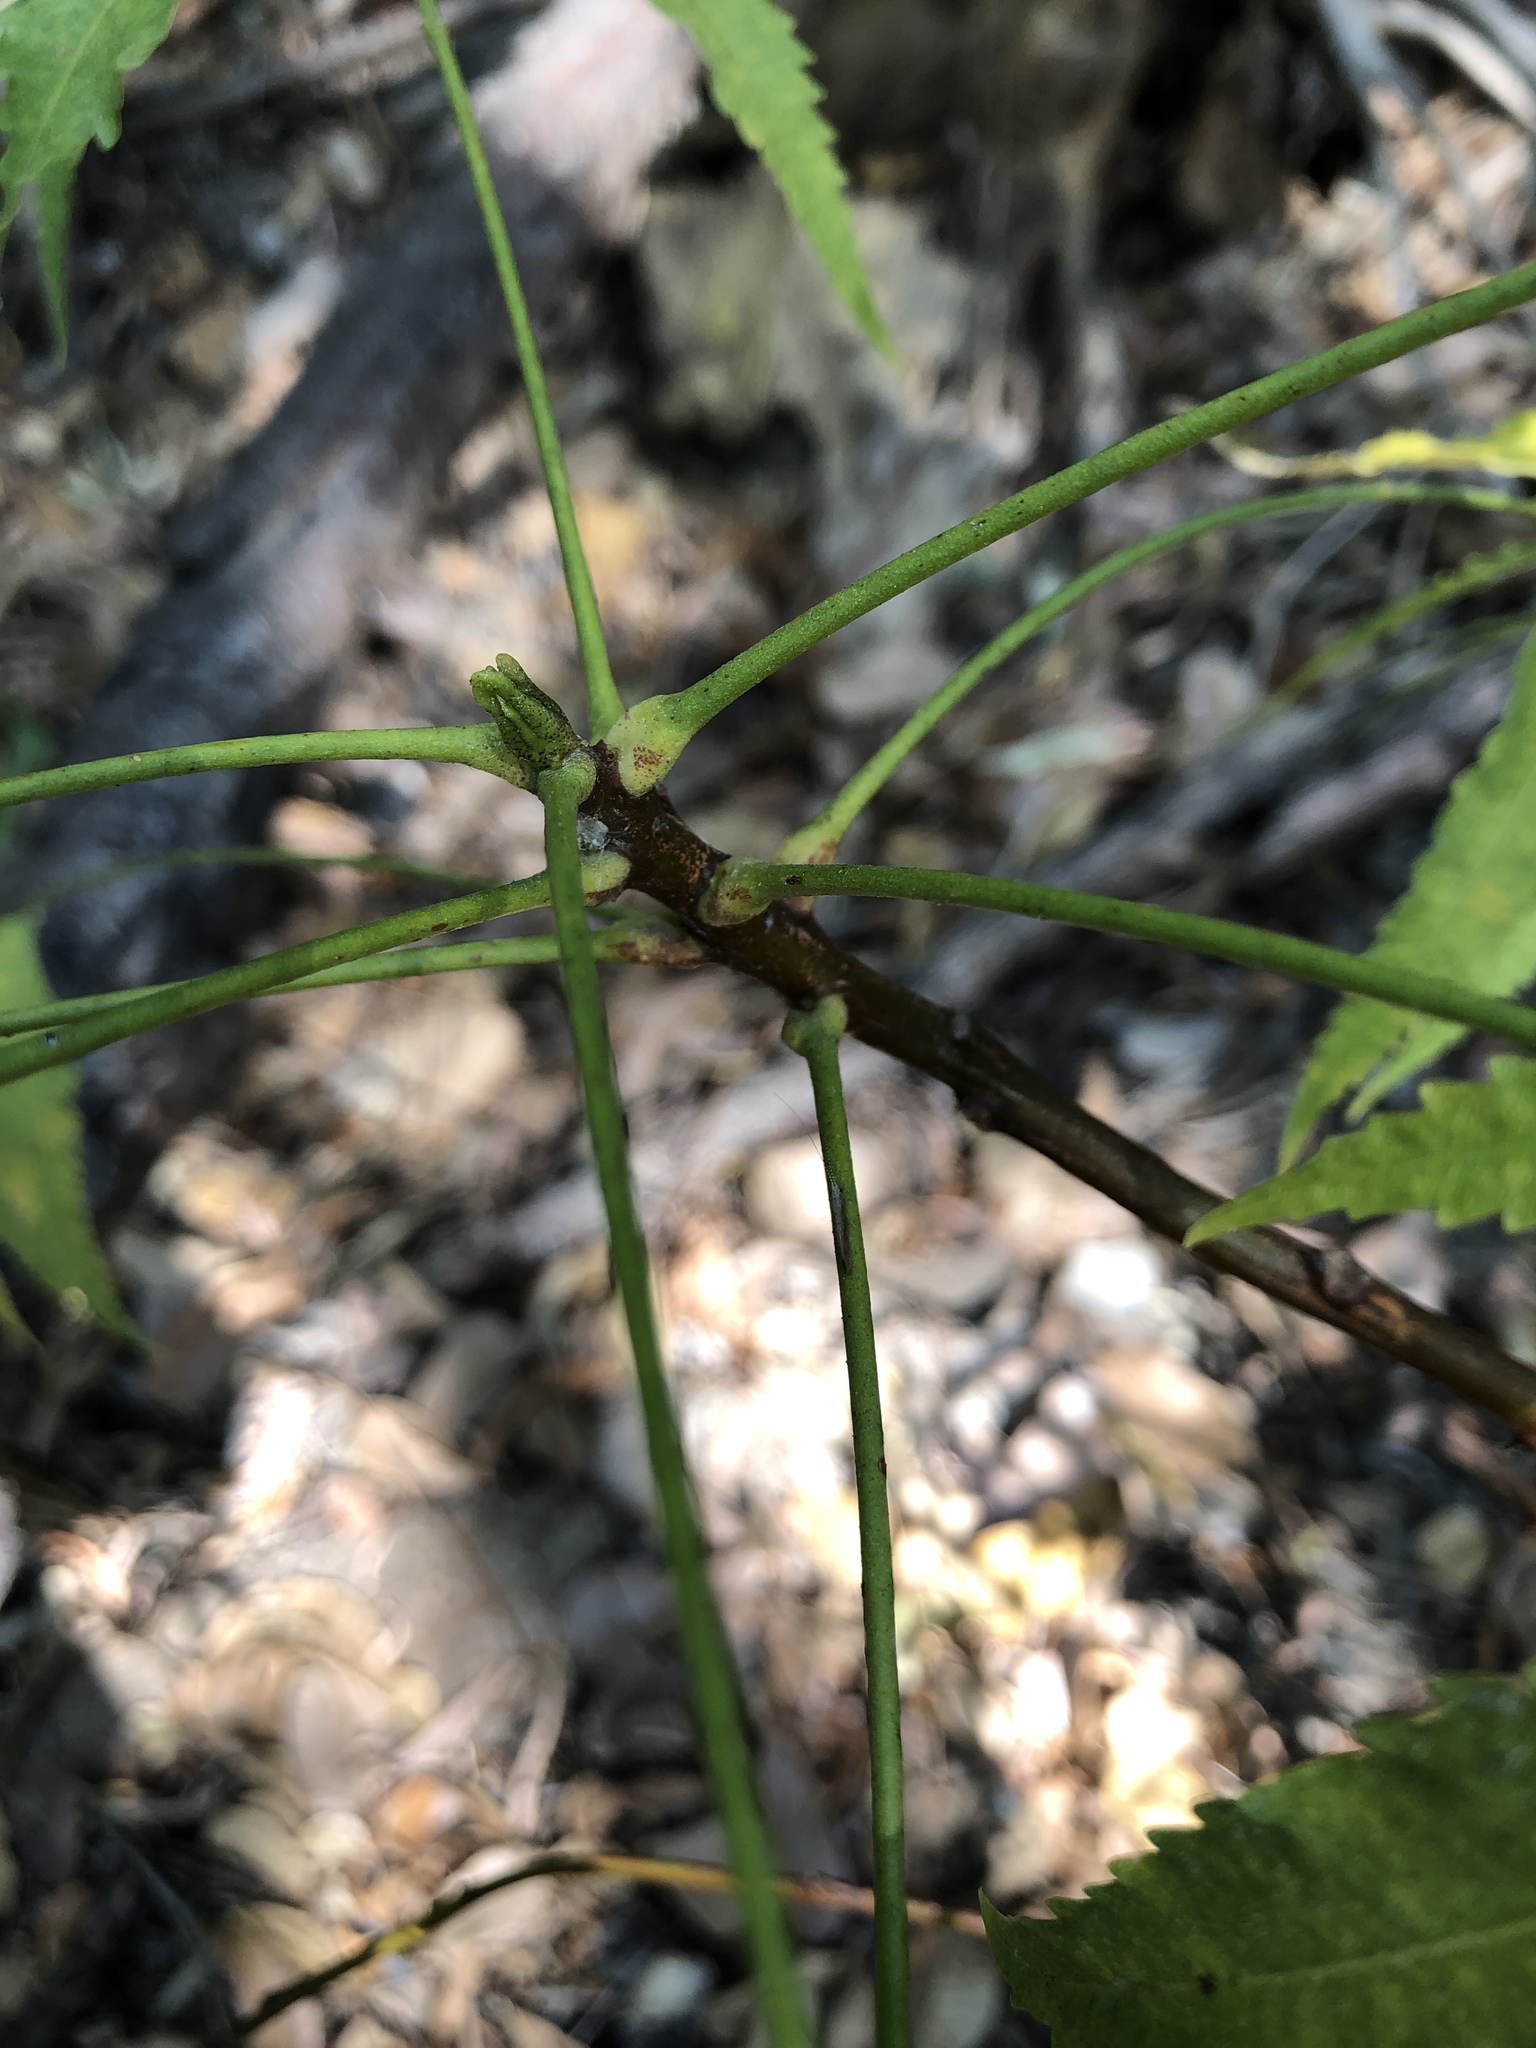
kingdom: Plantae
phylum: Tracheophyta
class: Magnoliopsida
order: Sapindales
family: Meliaceae
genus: Azadirachta
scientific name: Azadirachta indica
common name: Neem
